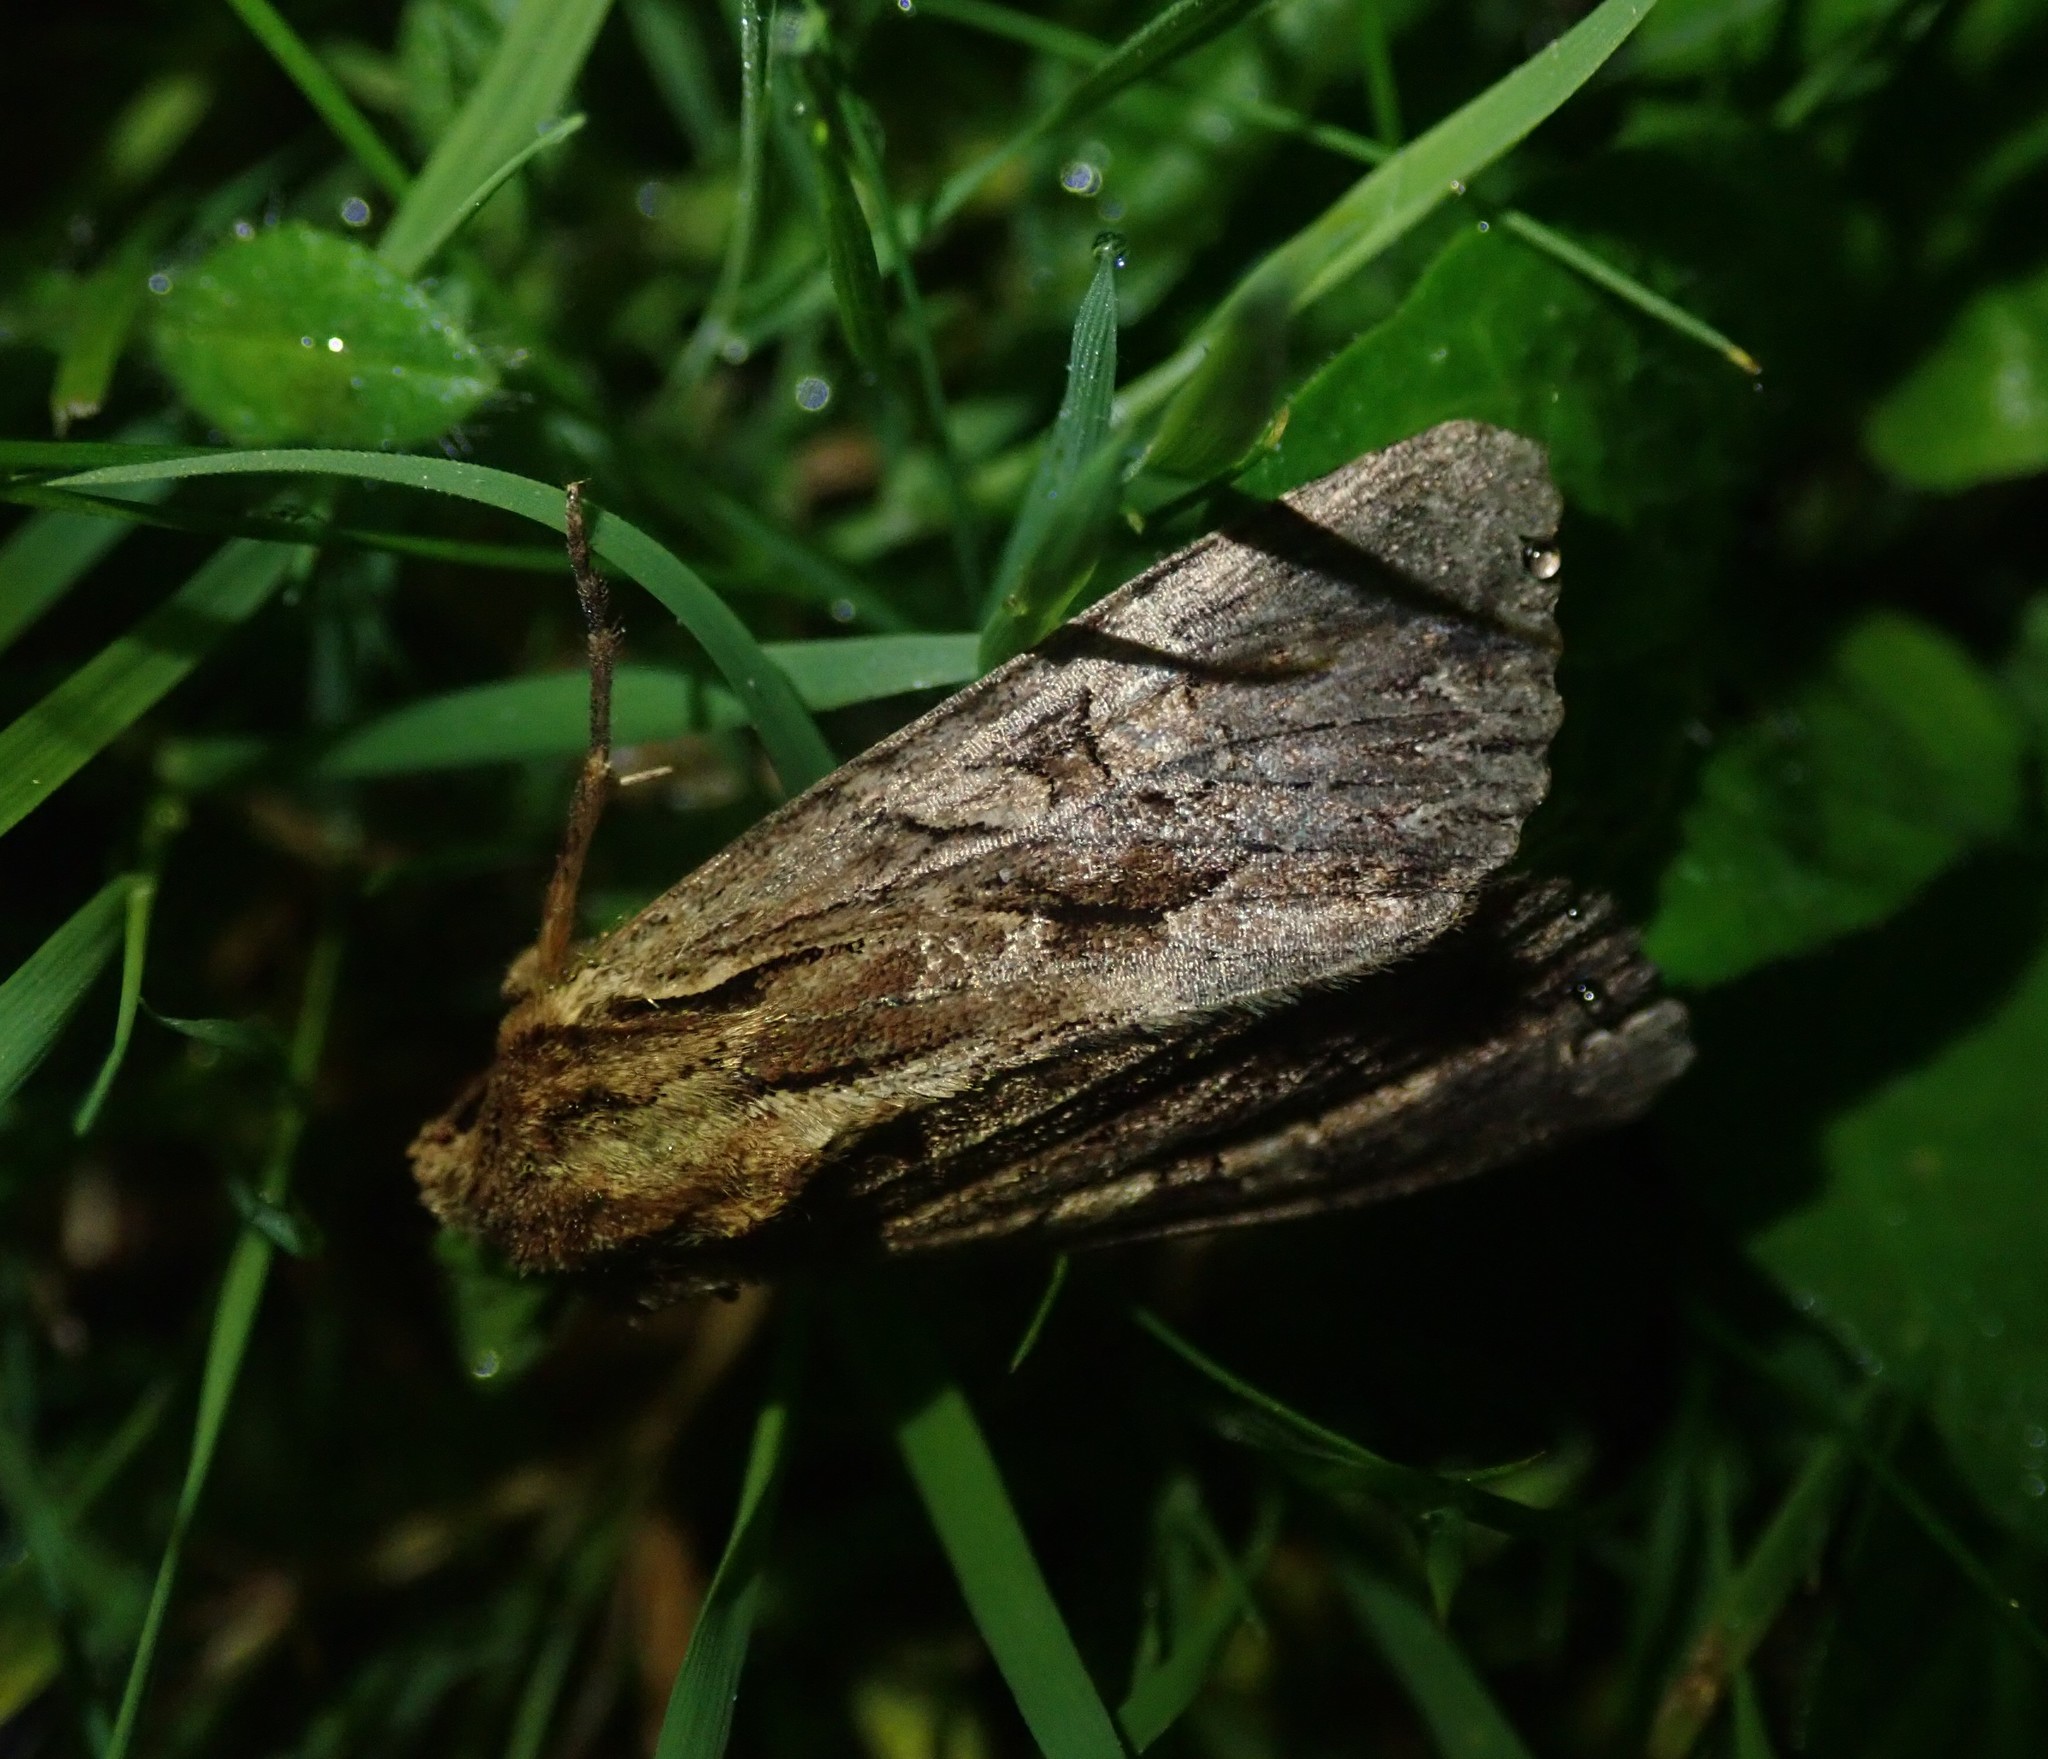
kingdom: Animalia
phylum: Arthropoda
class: Insecta
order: Lepidoptera
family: Noctuidae
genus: Apamea
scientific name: Apamea monoglypha
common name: Dark arches
